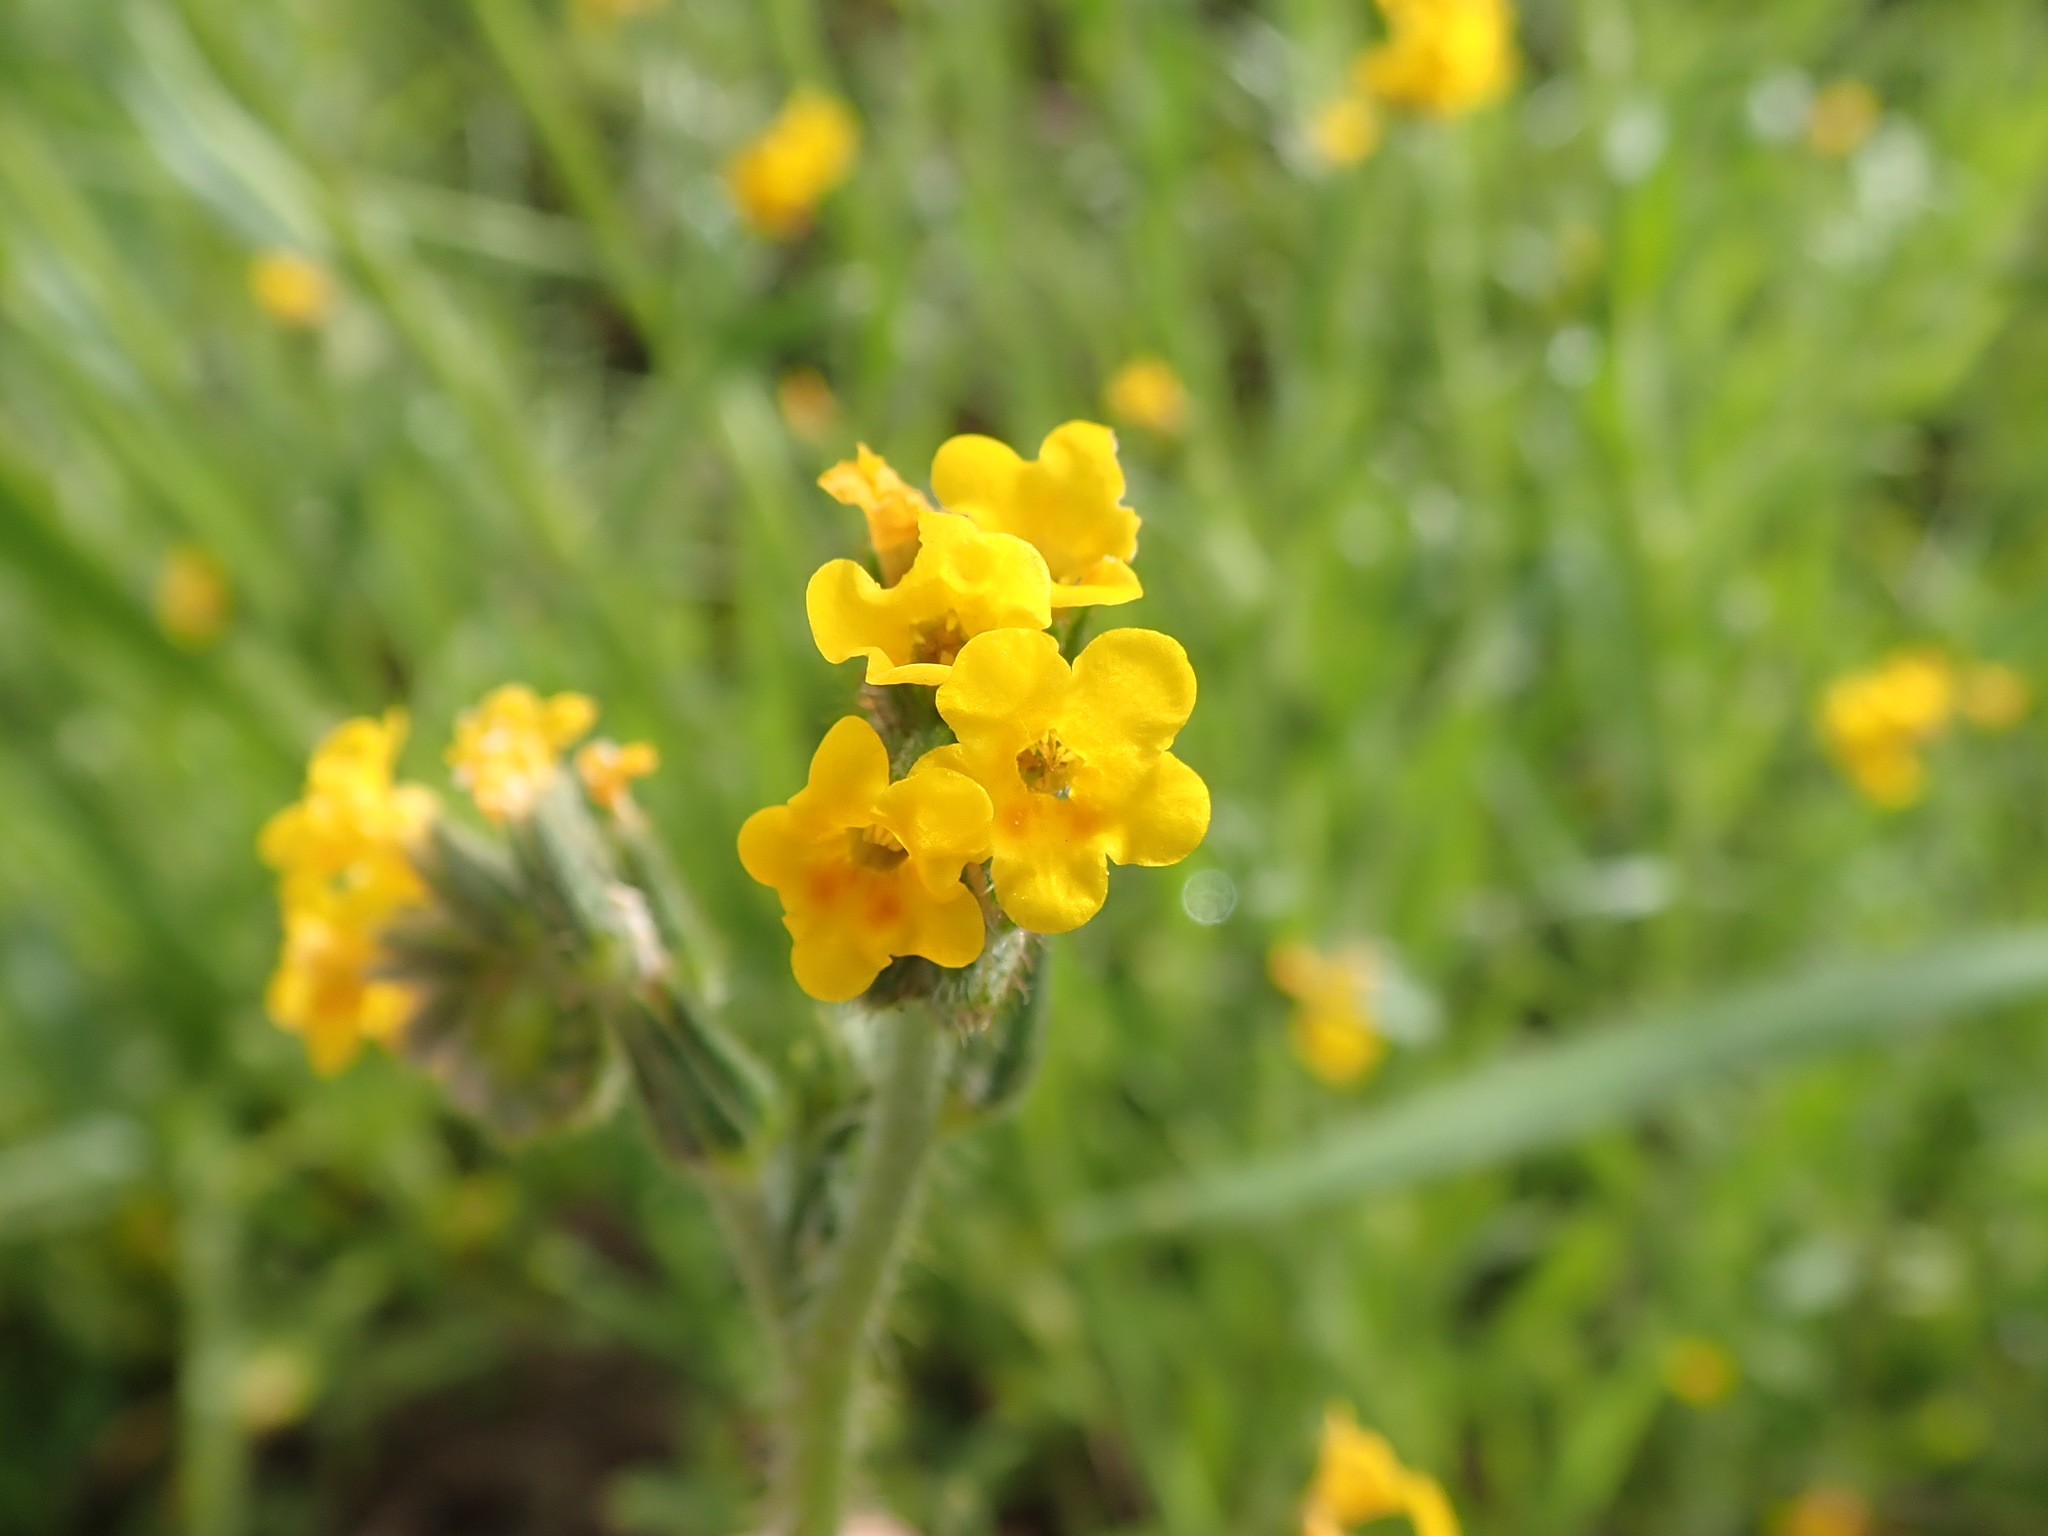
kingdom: Plantae
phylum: Tracheophyta
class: Magnoliopsida
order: Boraginales
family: Boraginaceae
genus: Amsinckia
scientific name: Amsinckia menziesii
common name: Menzies' fiddleneck
